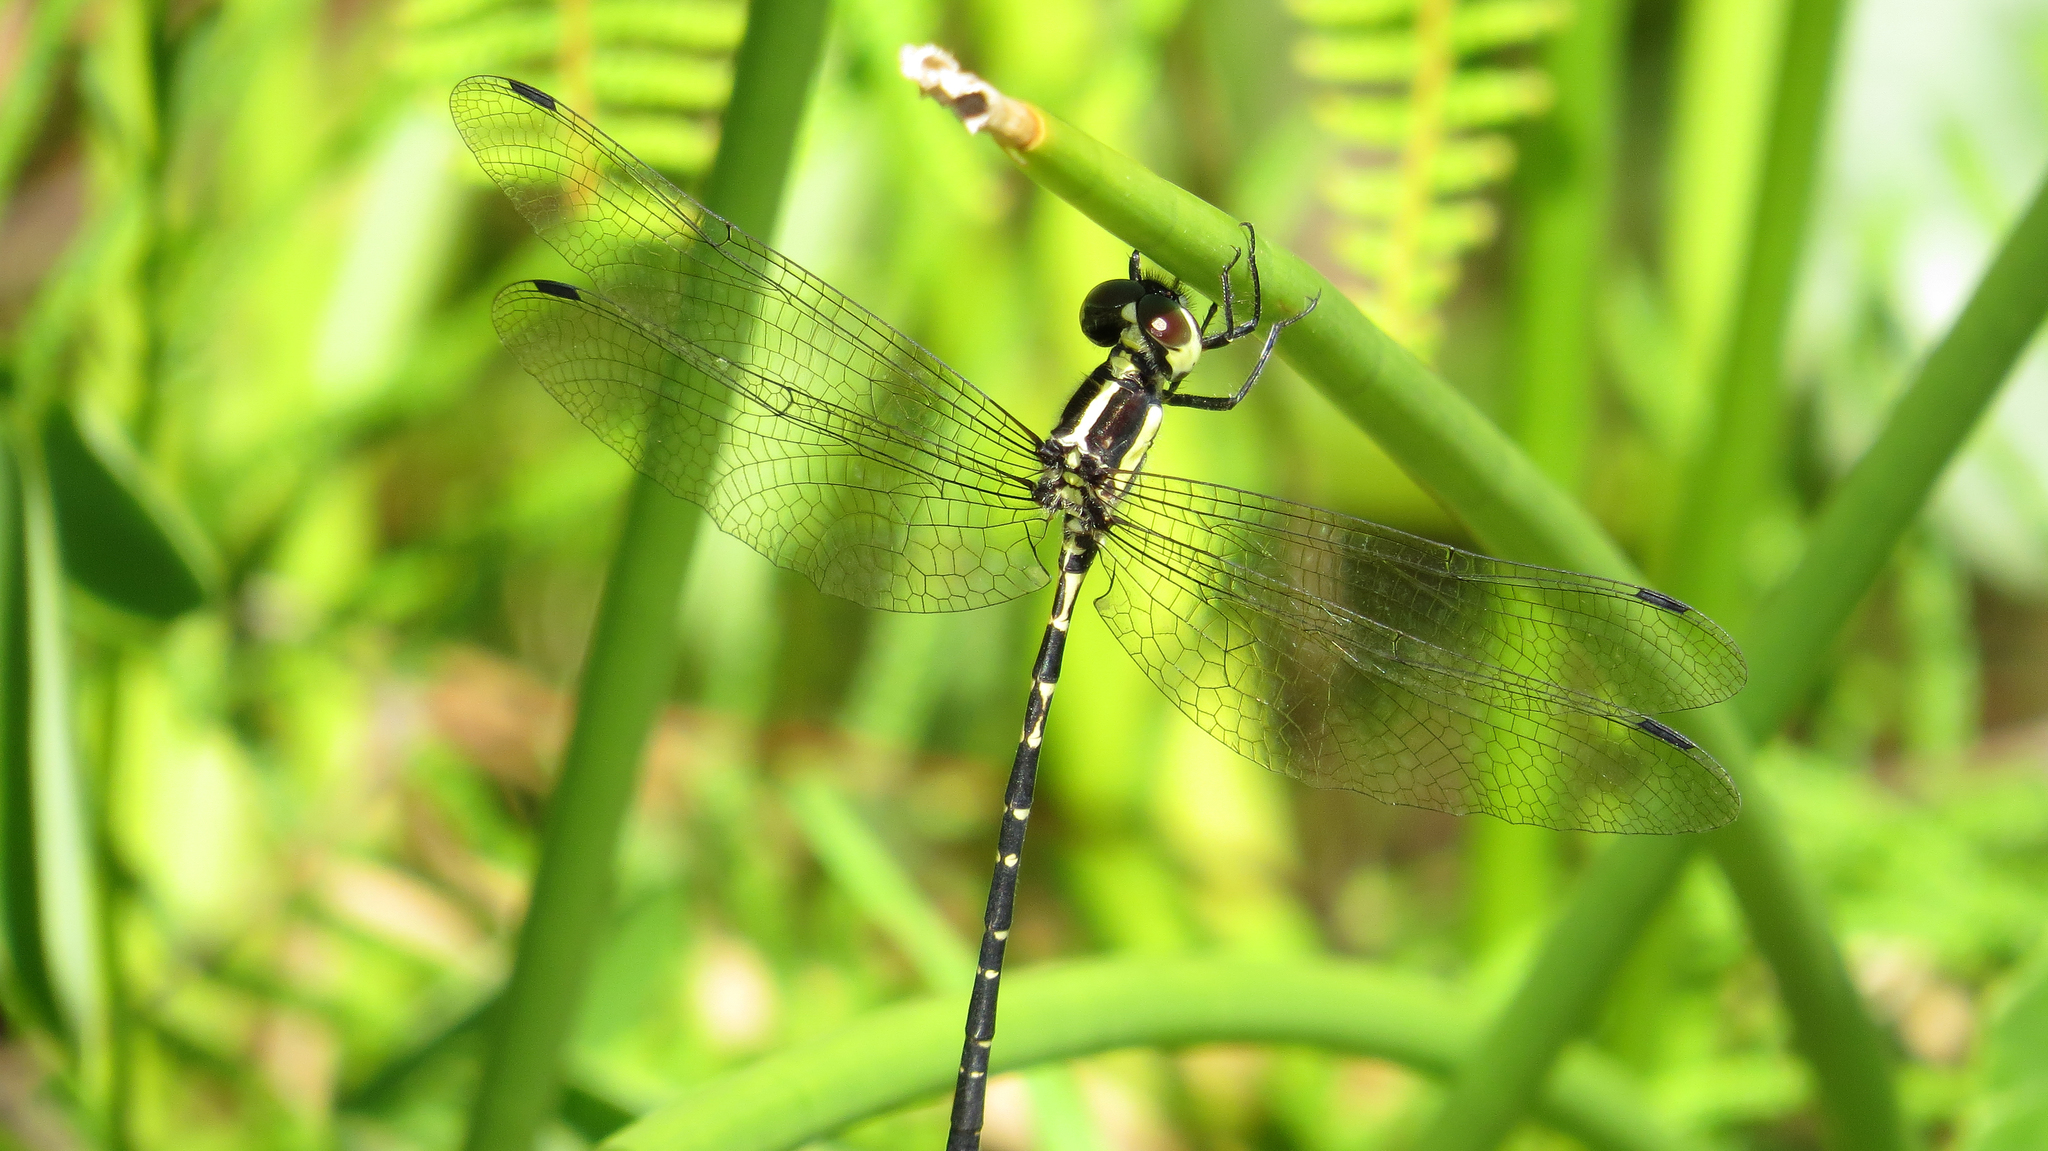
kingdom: Animalia
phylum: Arthropoda
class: Insecta
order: Odonata
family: Synthemistidae
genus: Choristhemis
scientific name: Choristhemis flavoterminata
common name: Yellow-tipped tigertail
